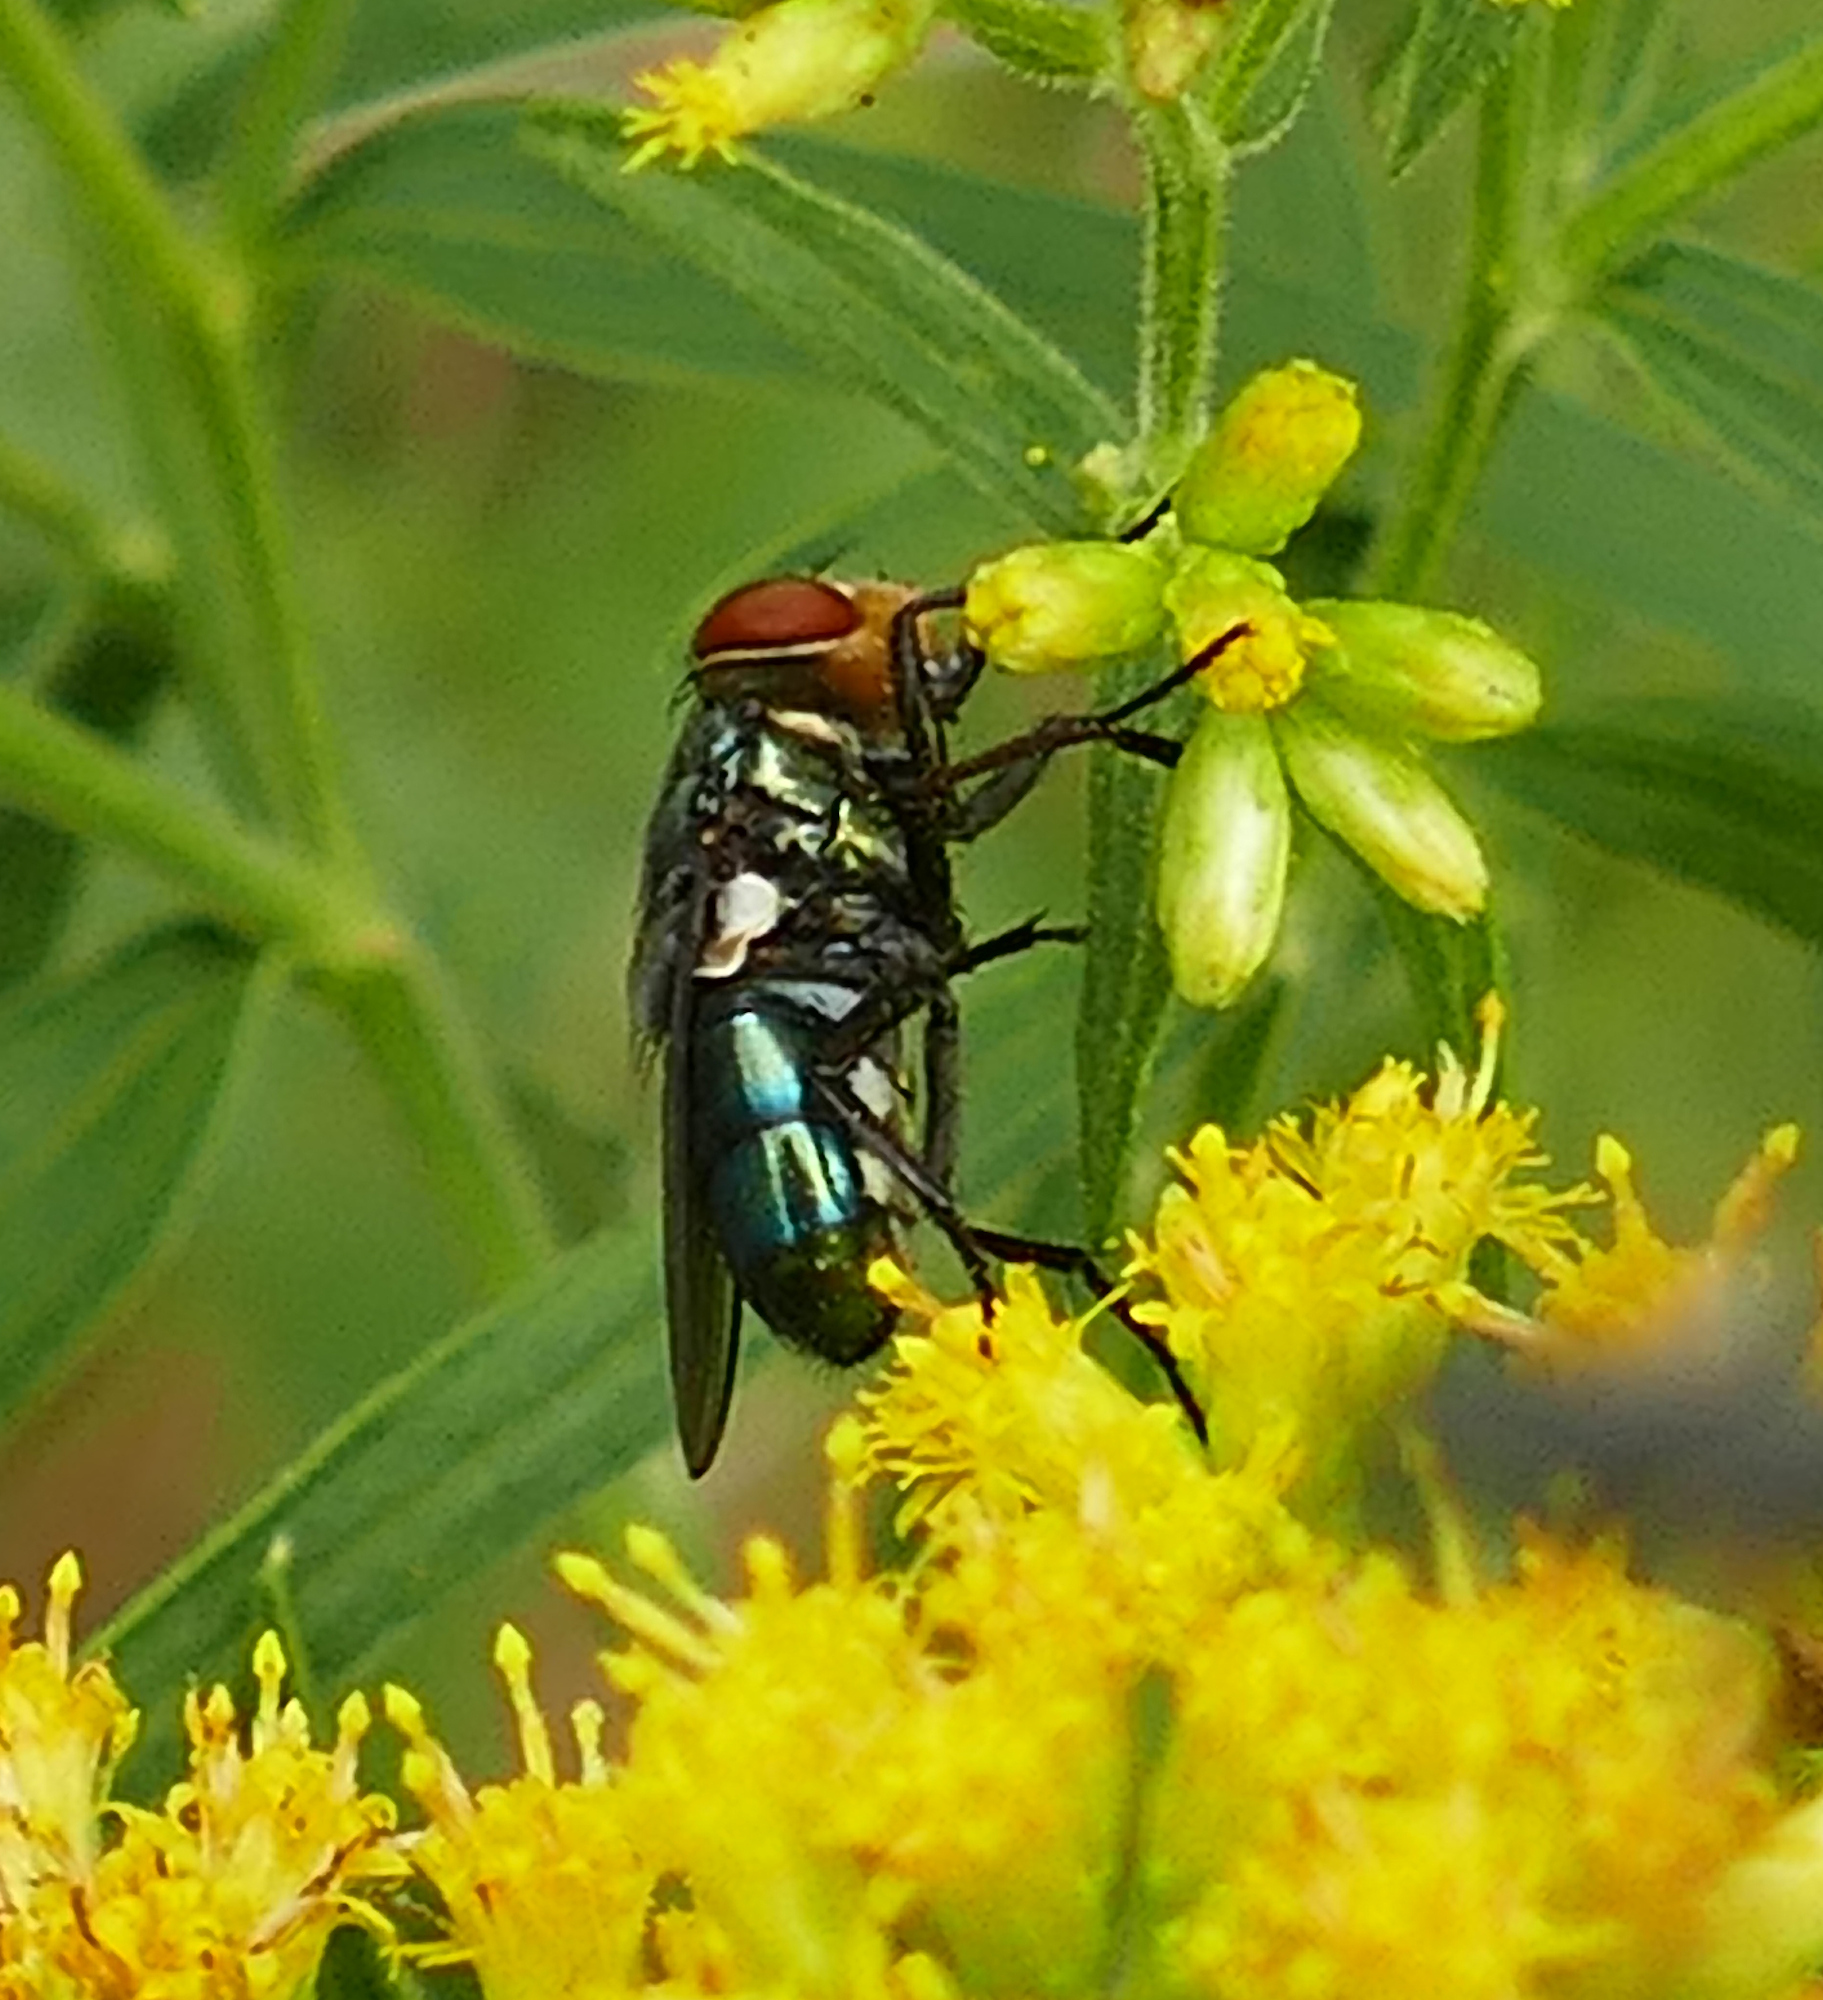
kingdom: Animalia
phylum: Arthropoda
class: Insecta
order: Diptera
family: Calliphoridae
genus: Cochliomyia
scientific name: Cochliomyia macellaria
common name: Secondary screwworm
